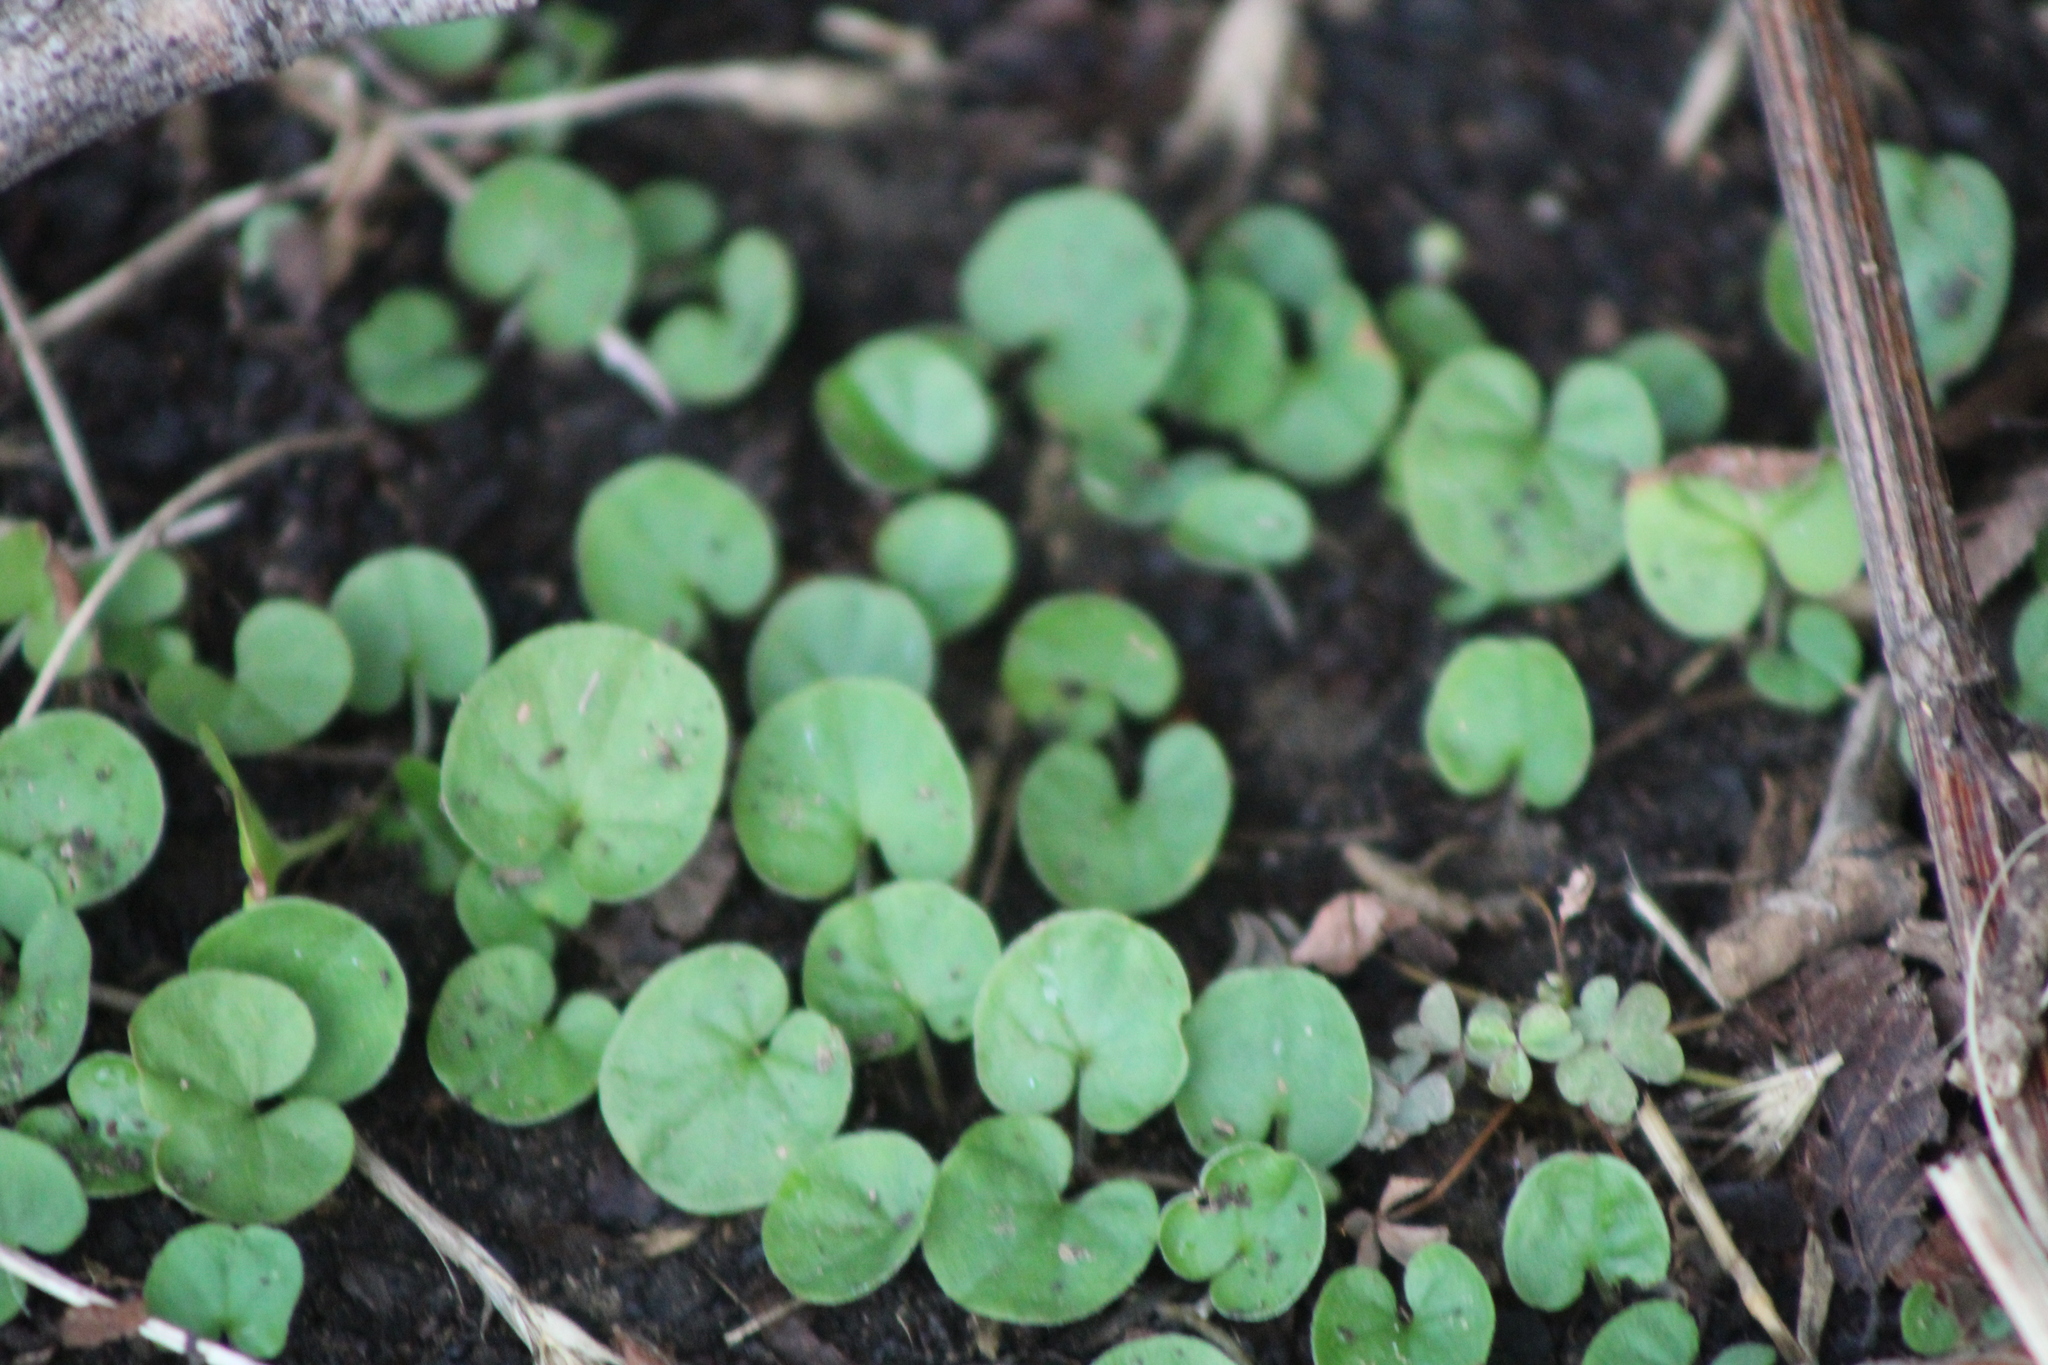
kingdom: Plantae
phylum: Tracheophyta
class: Magnoliopsida
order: Solanales
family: Convolvulaceae
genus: Dichondra
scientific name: Dichondra carolinensis
